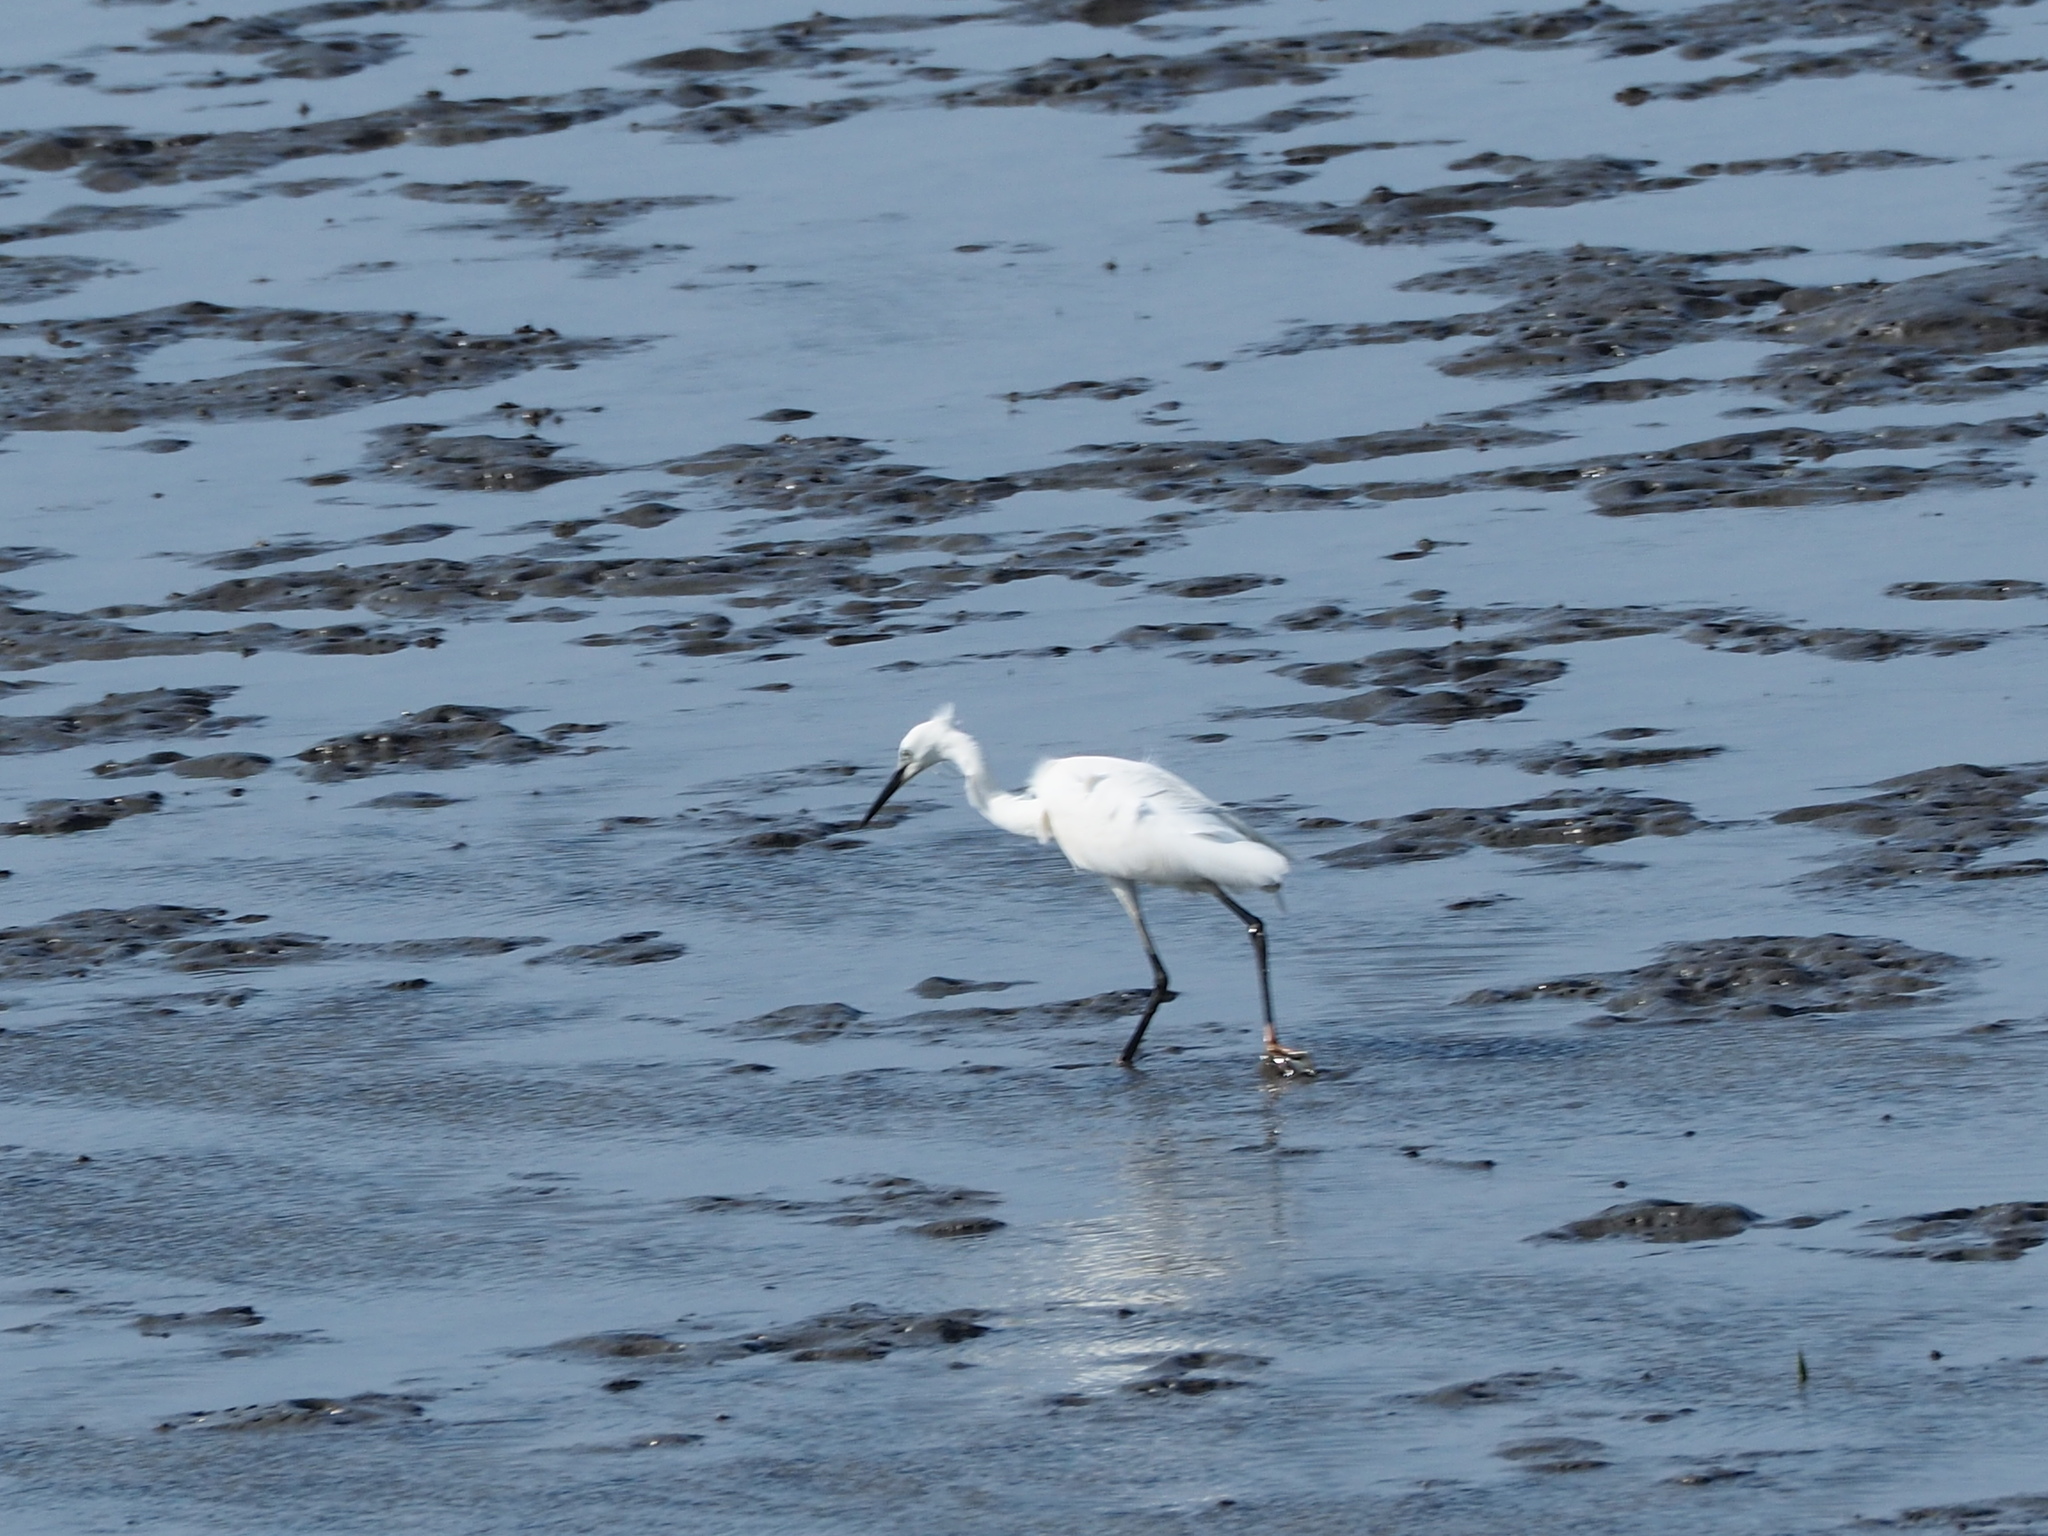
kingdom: Animalia
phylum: Chordata
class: Aves
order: Pelecaniformes
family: Ardeidae
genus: Egretta
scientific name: Egretta garzetta
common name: Little egret
